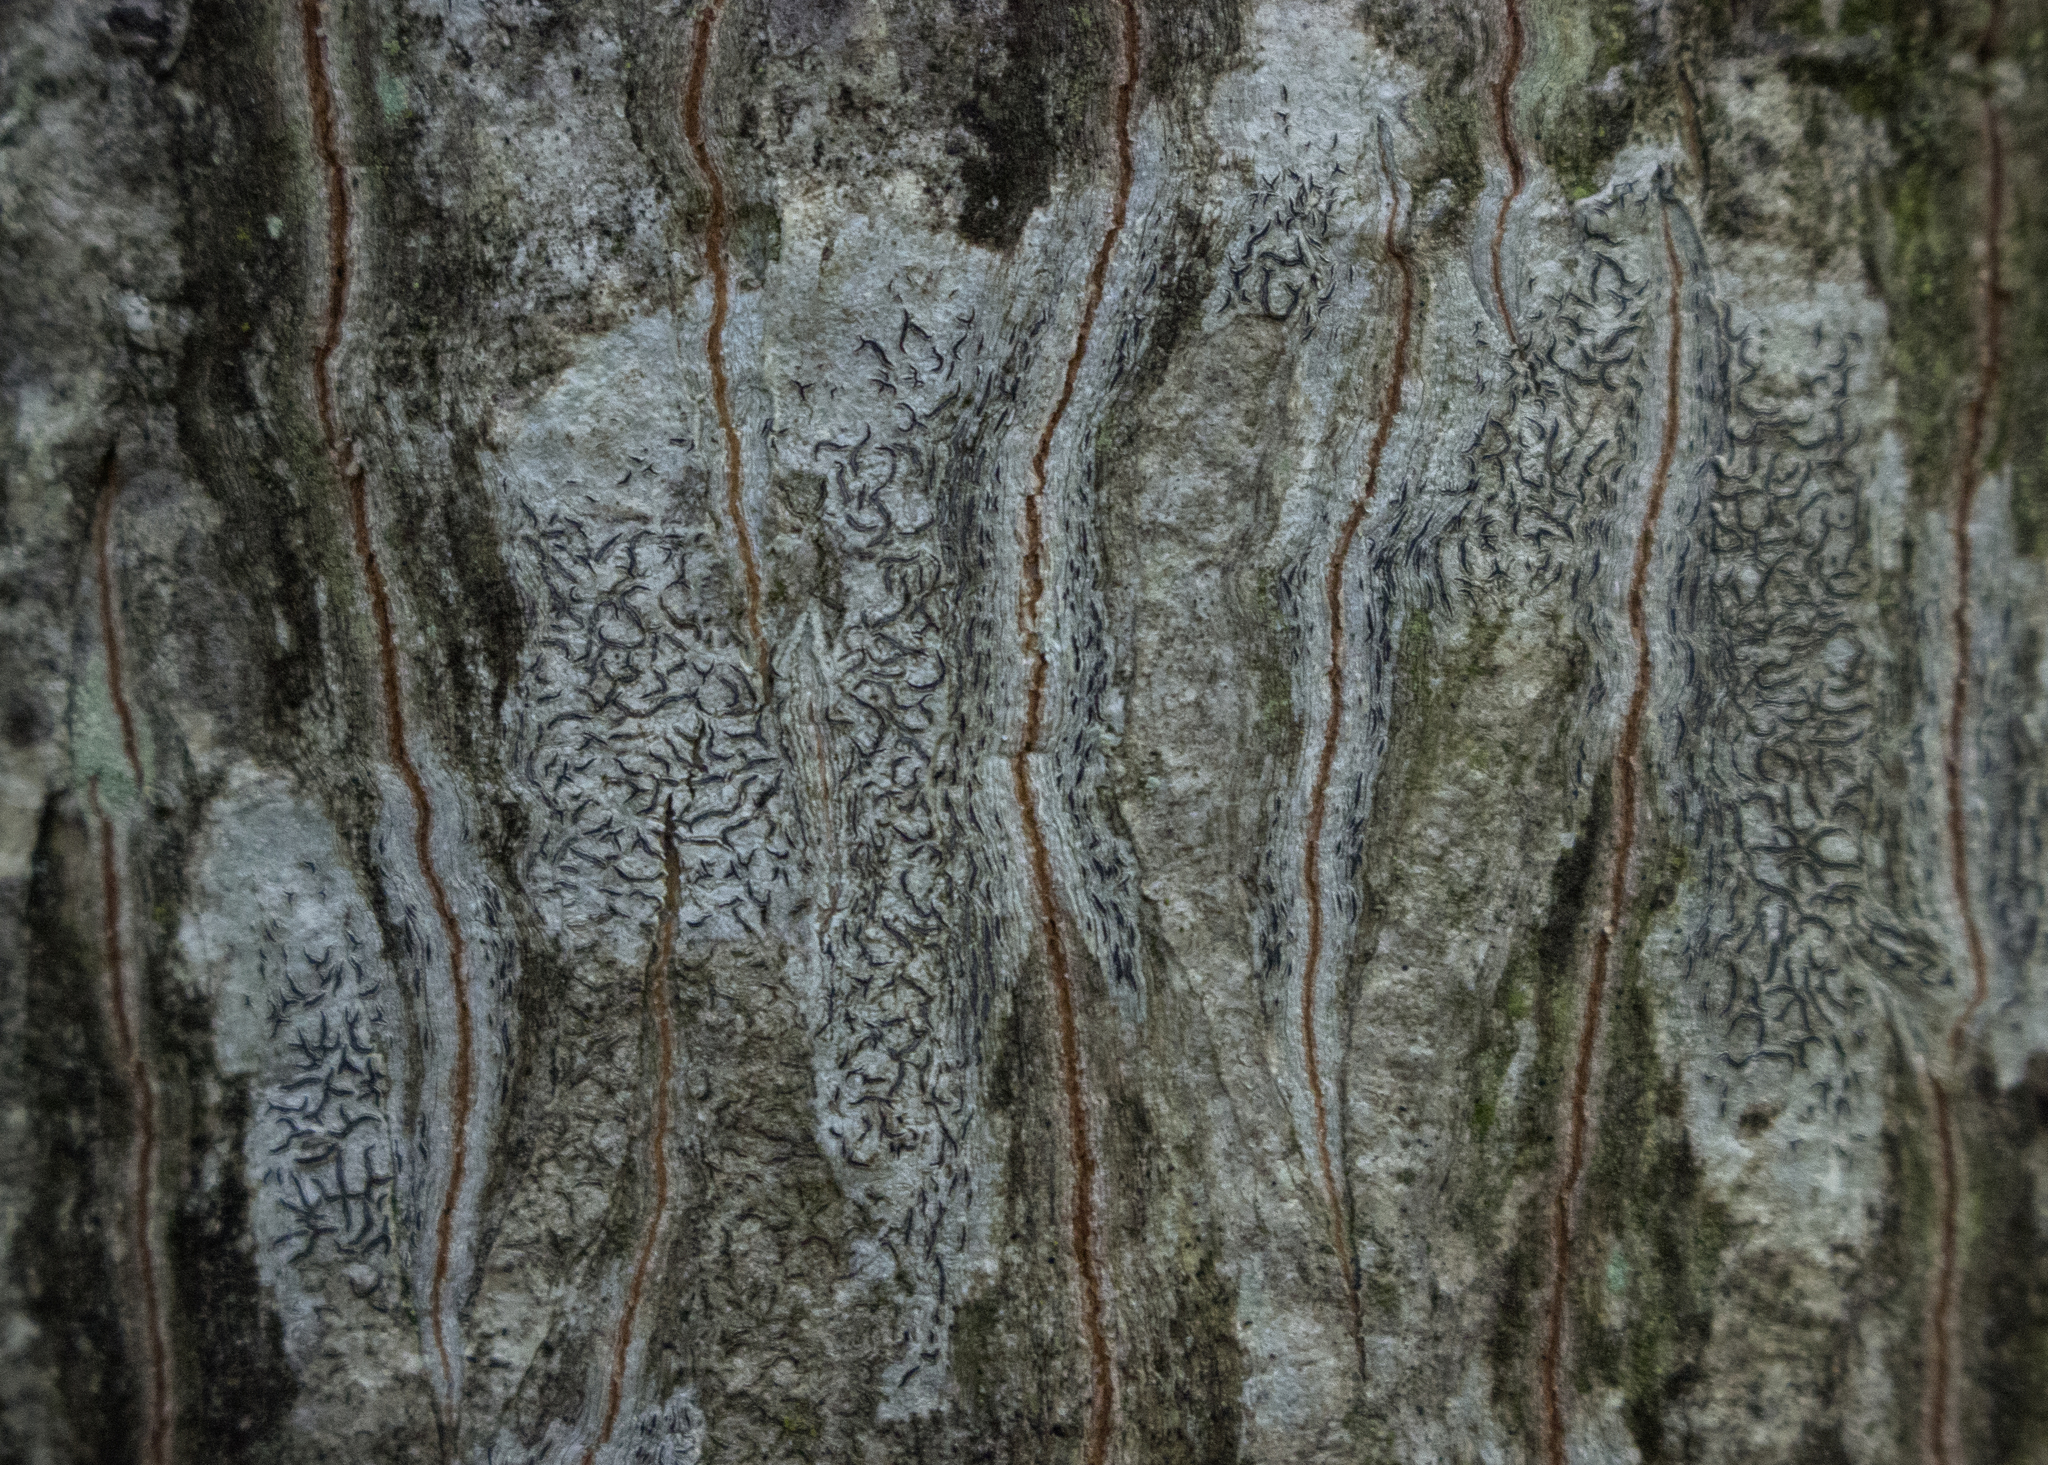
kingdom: Fungi
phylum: Ascomycota
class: Lecanoromycetes
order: Ostropales
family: Graphidaceae
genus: Graphis
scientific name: Graphis scripta
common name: Script lichen
